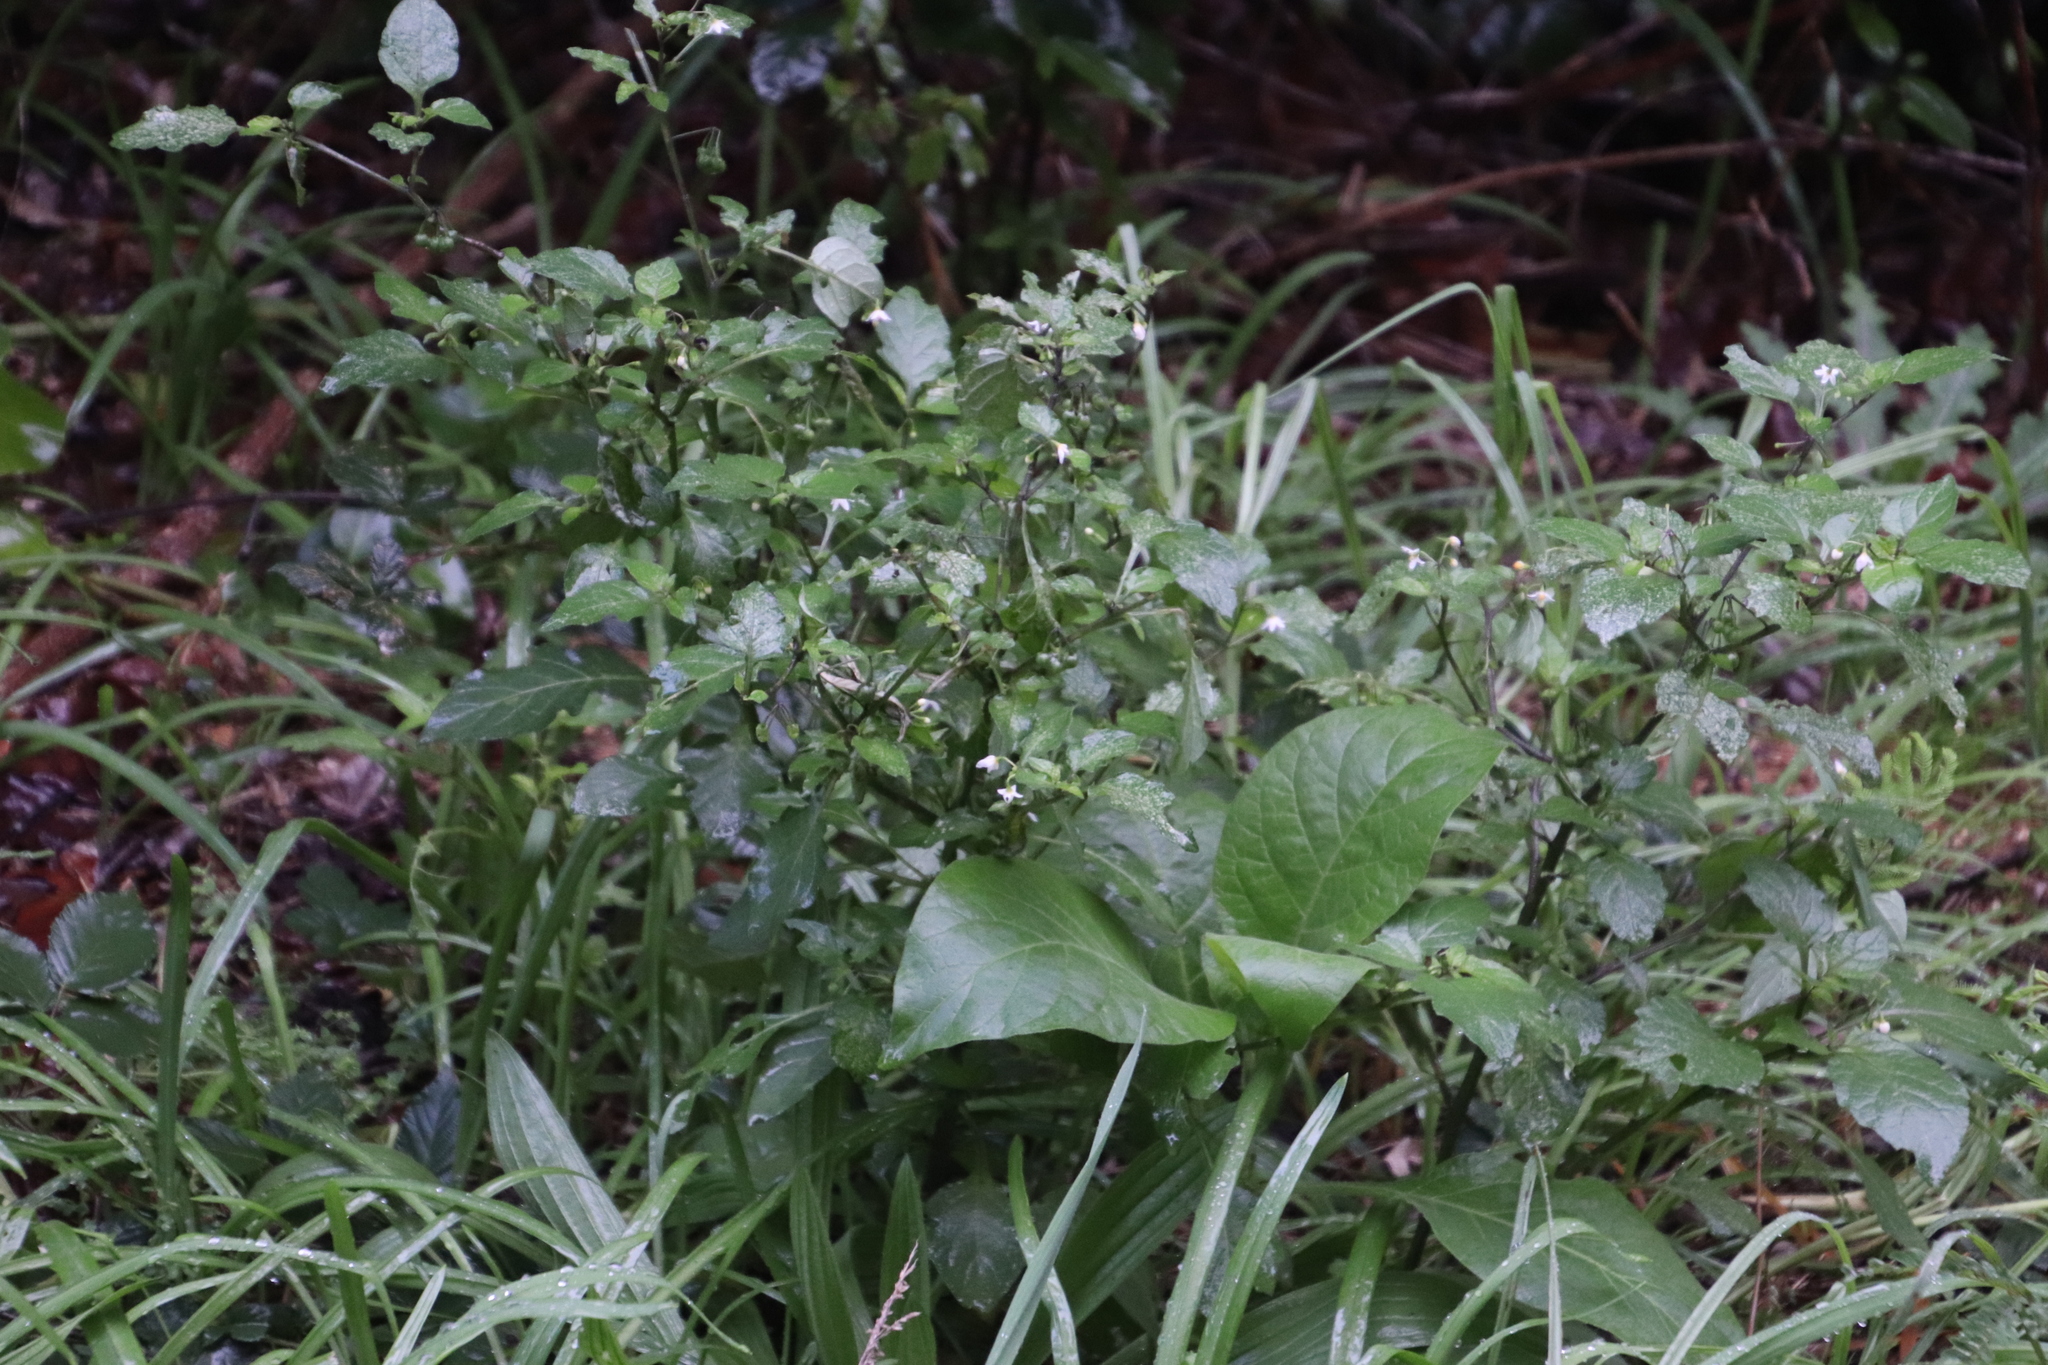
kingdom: Plantae
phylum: Tracheophyta
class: Magnoliopsida
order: Solanales
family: Solanaceae
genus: Solanum
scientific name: Solanum nigrum
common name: Black nightshade
